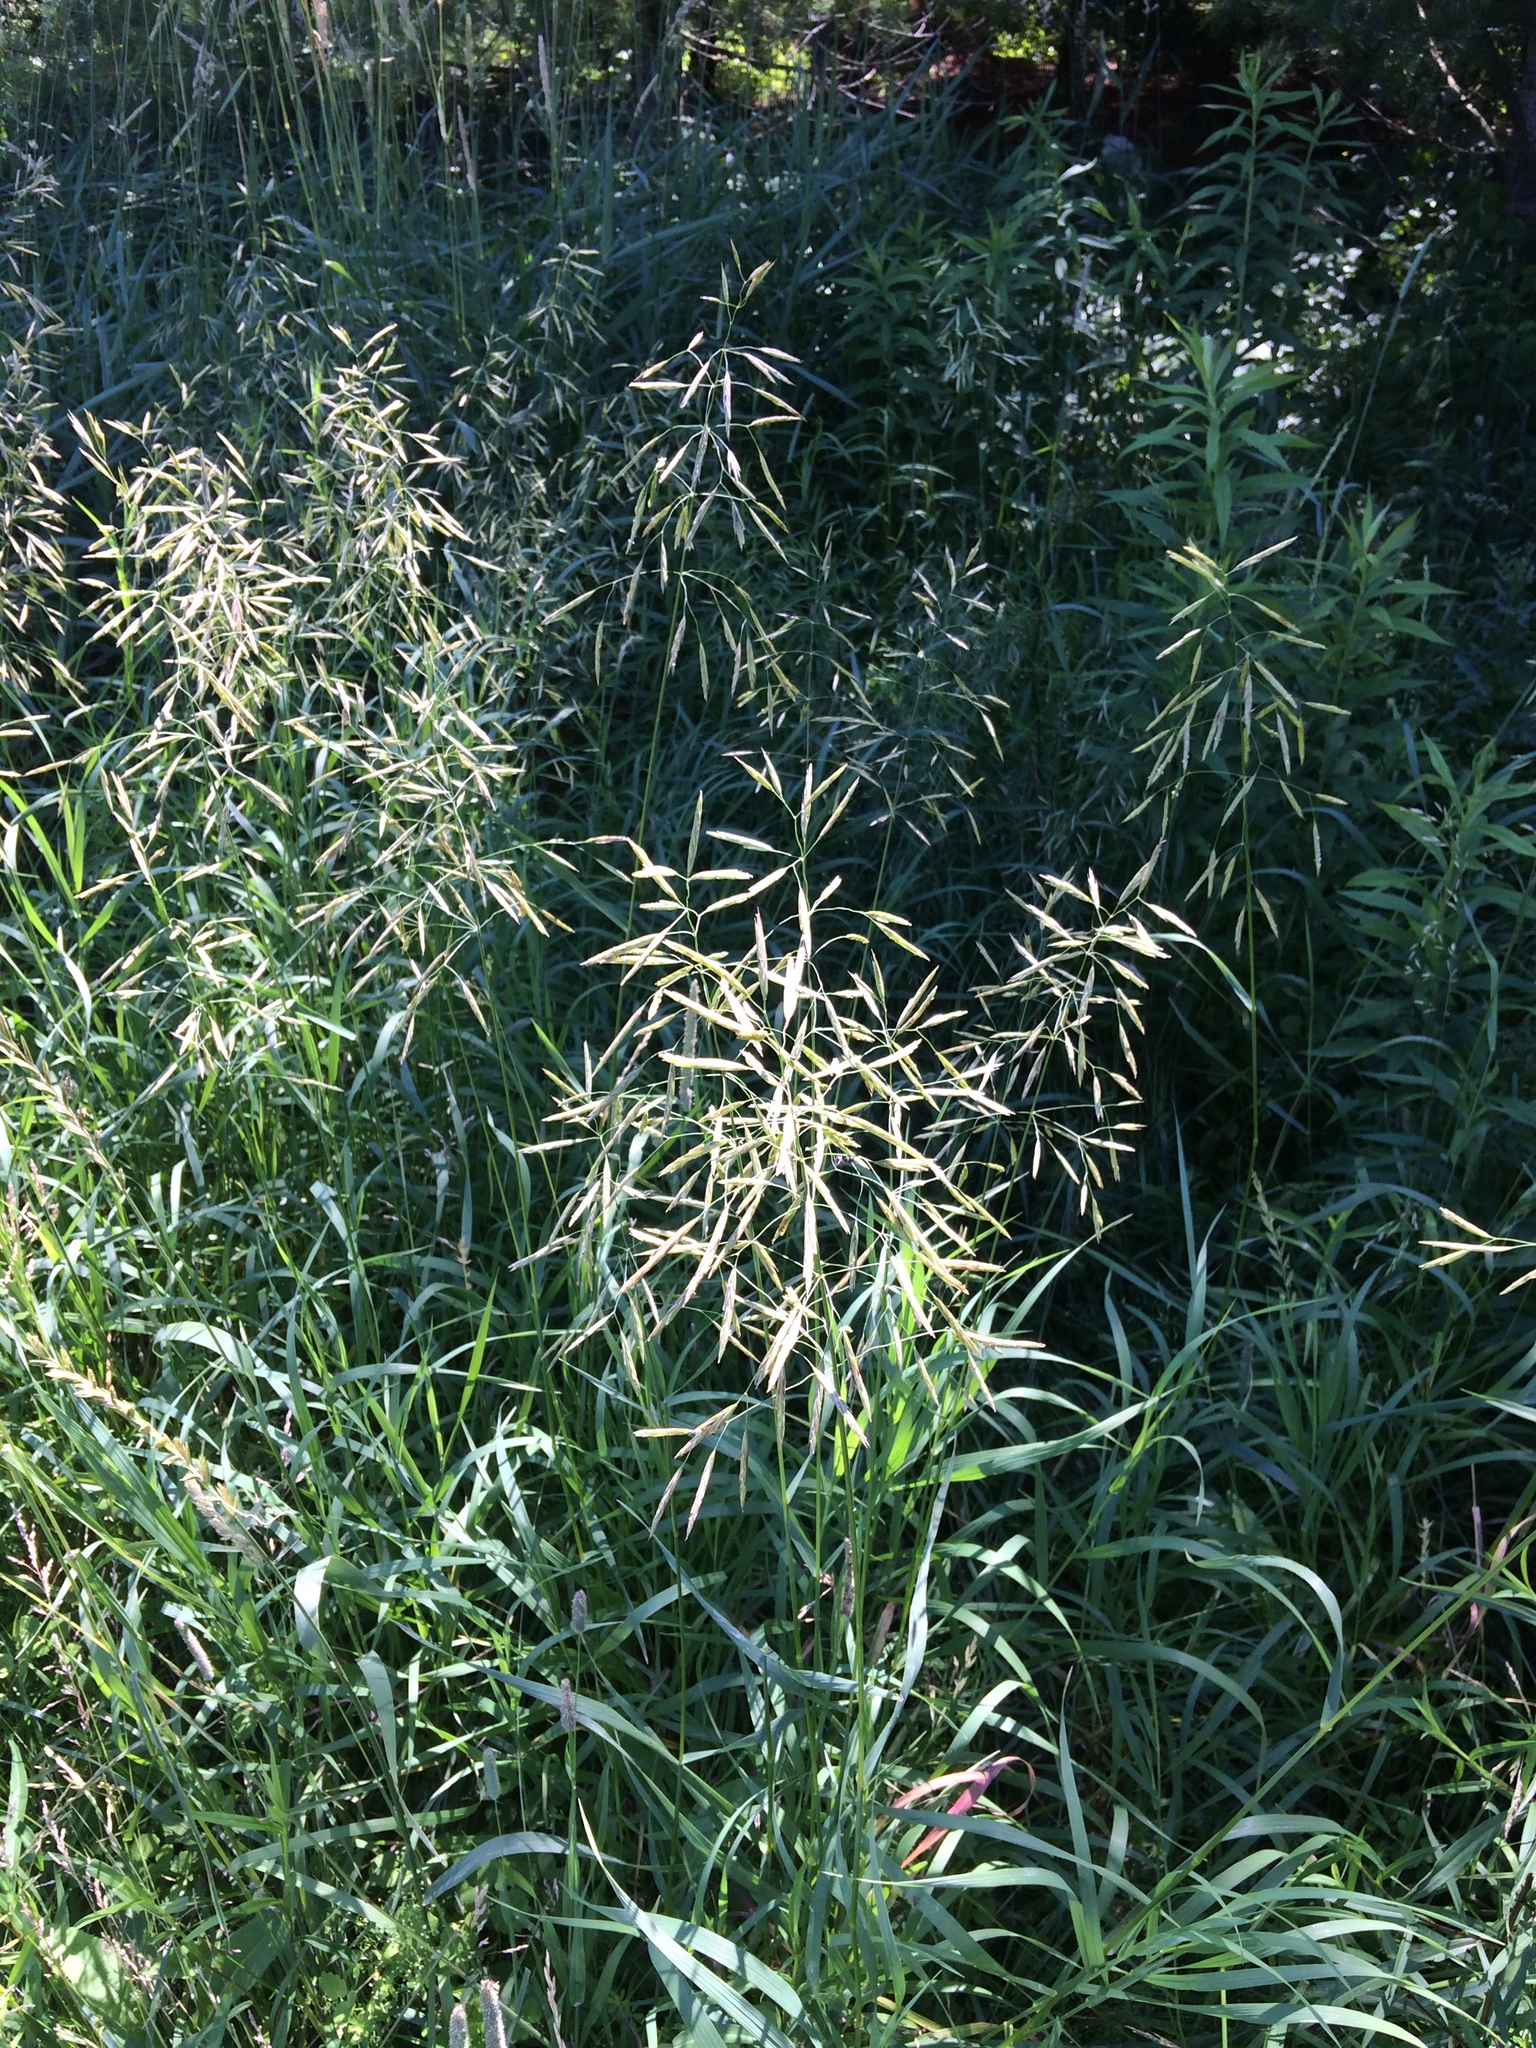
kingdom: Plantae
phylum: Tracheophyta
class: Liliopsida
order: Poales
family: Poaceae
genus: Bromus
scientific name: Bromus inermis
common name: Smooth brome
